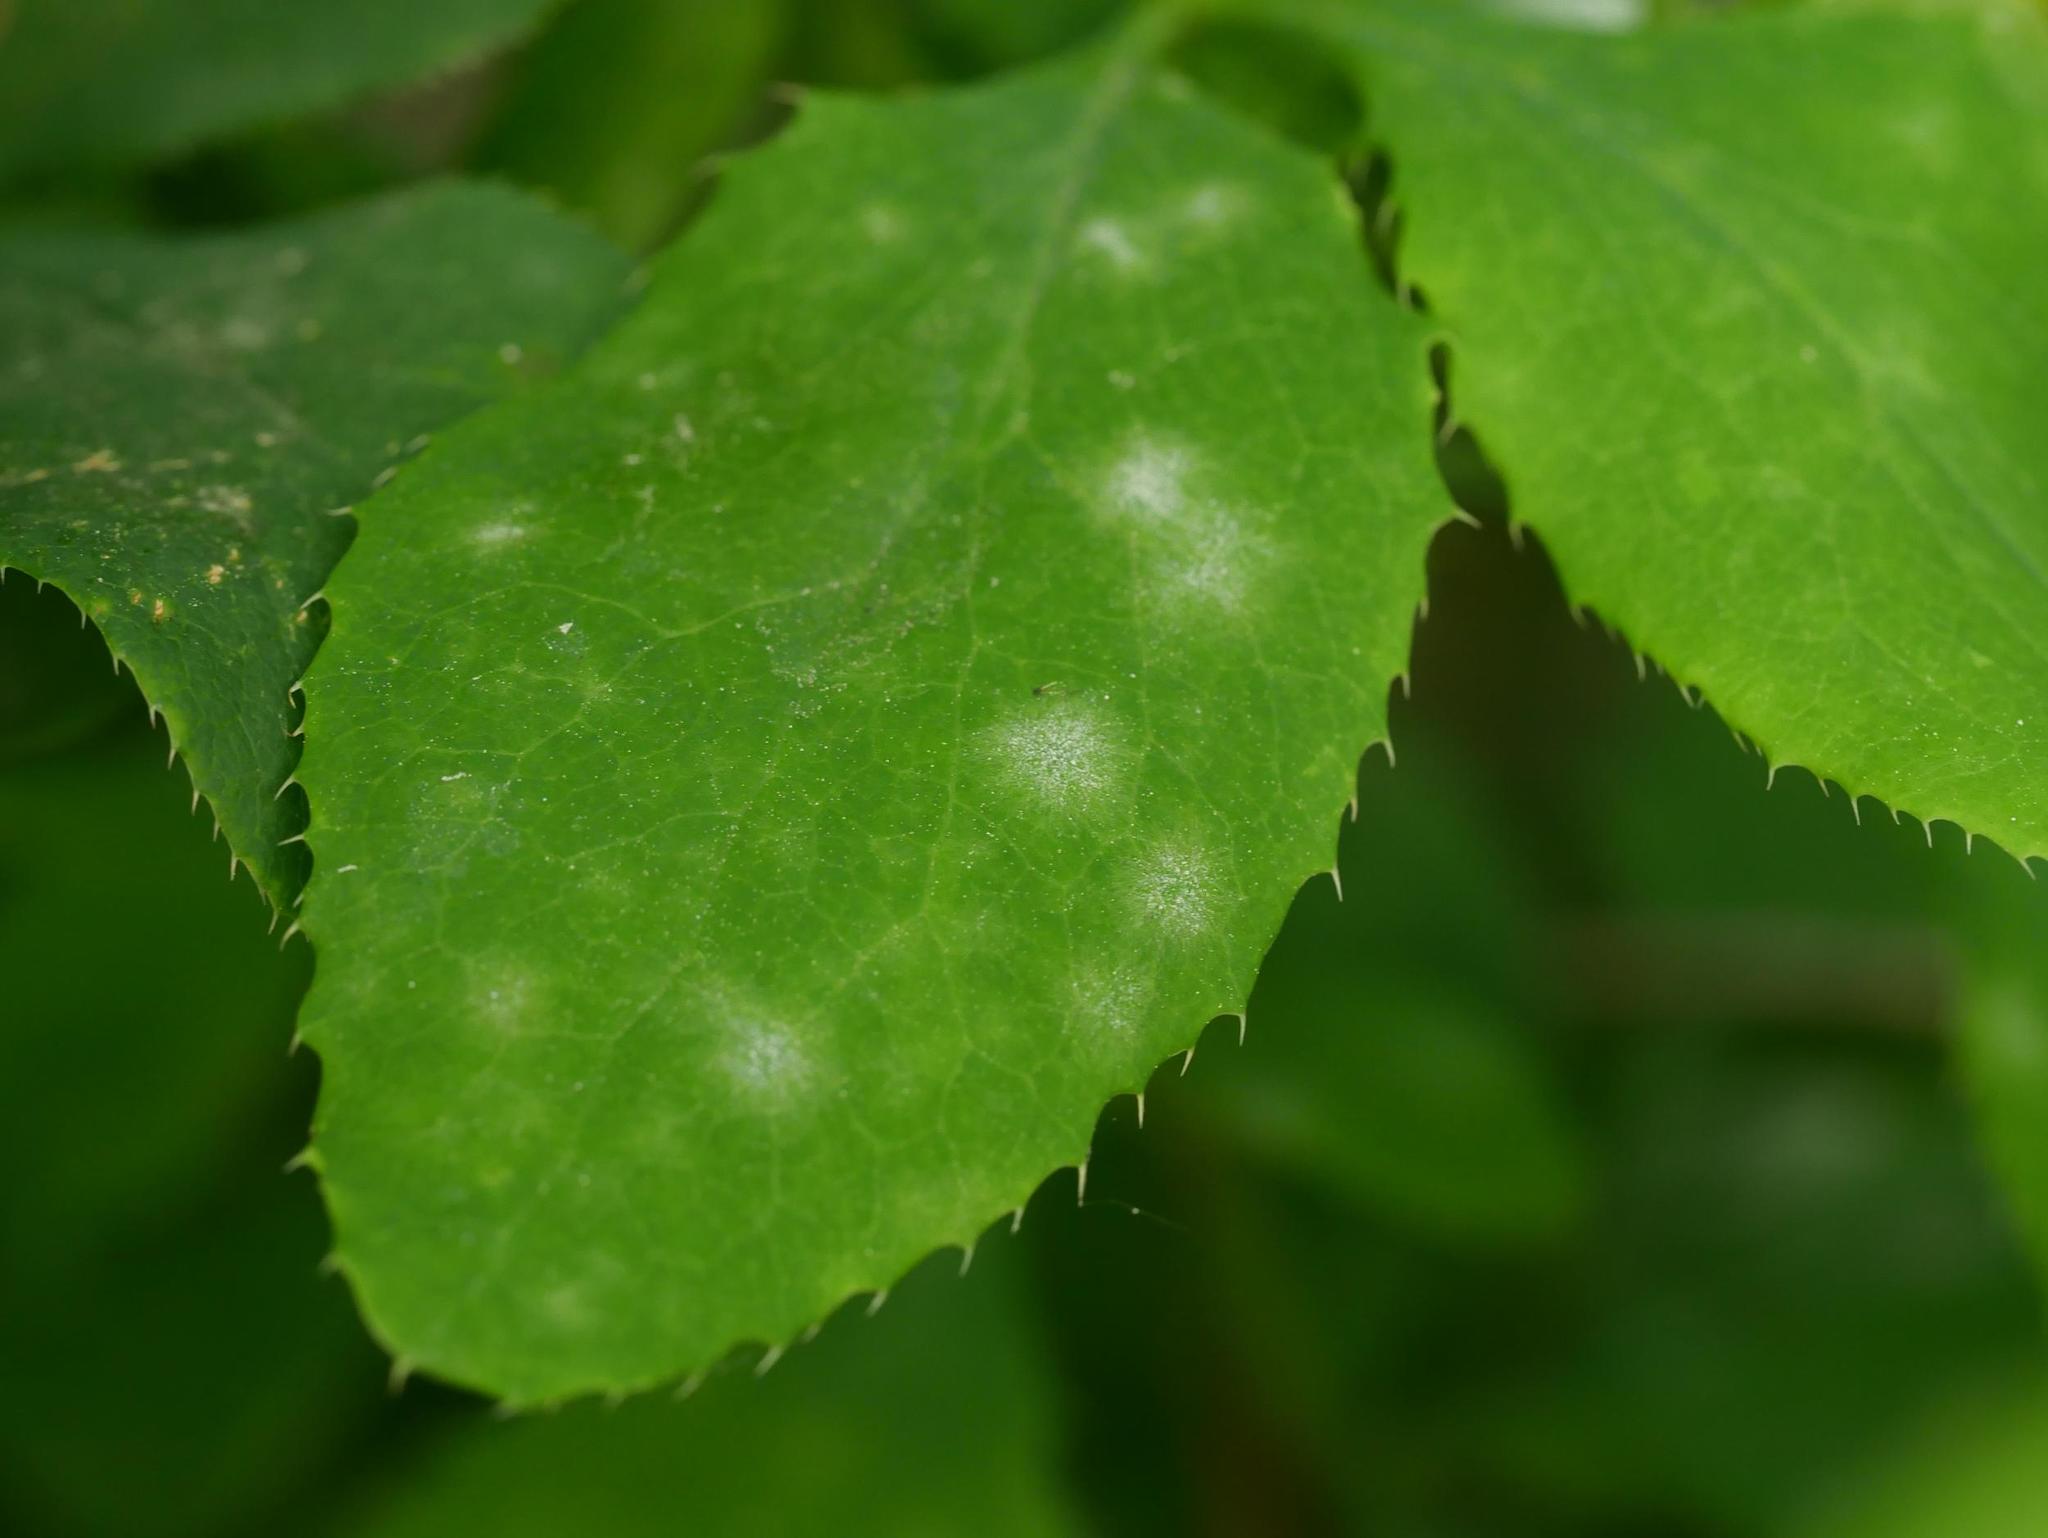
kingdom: Fungi
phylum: Ascomycota
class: Leotiomycetes
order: Helotiales
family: Erysiphaceae
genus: Erysiphe
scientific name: Erysiphe berberidis
